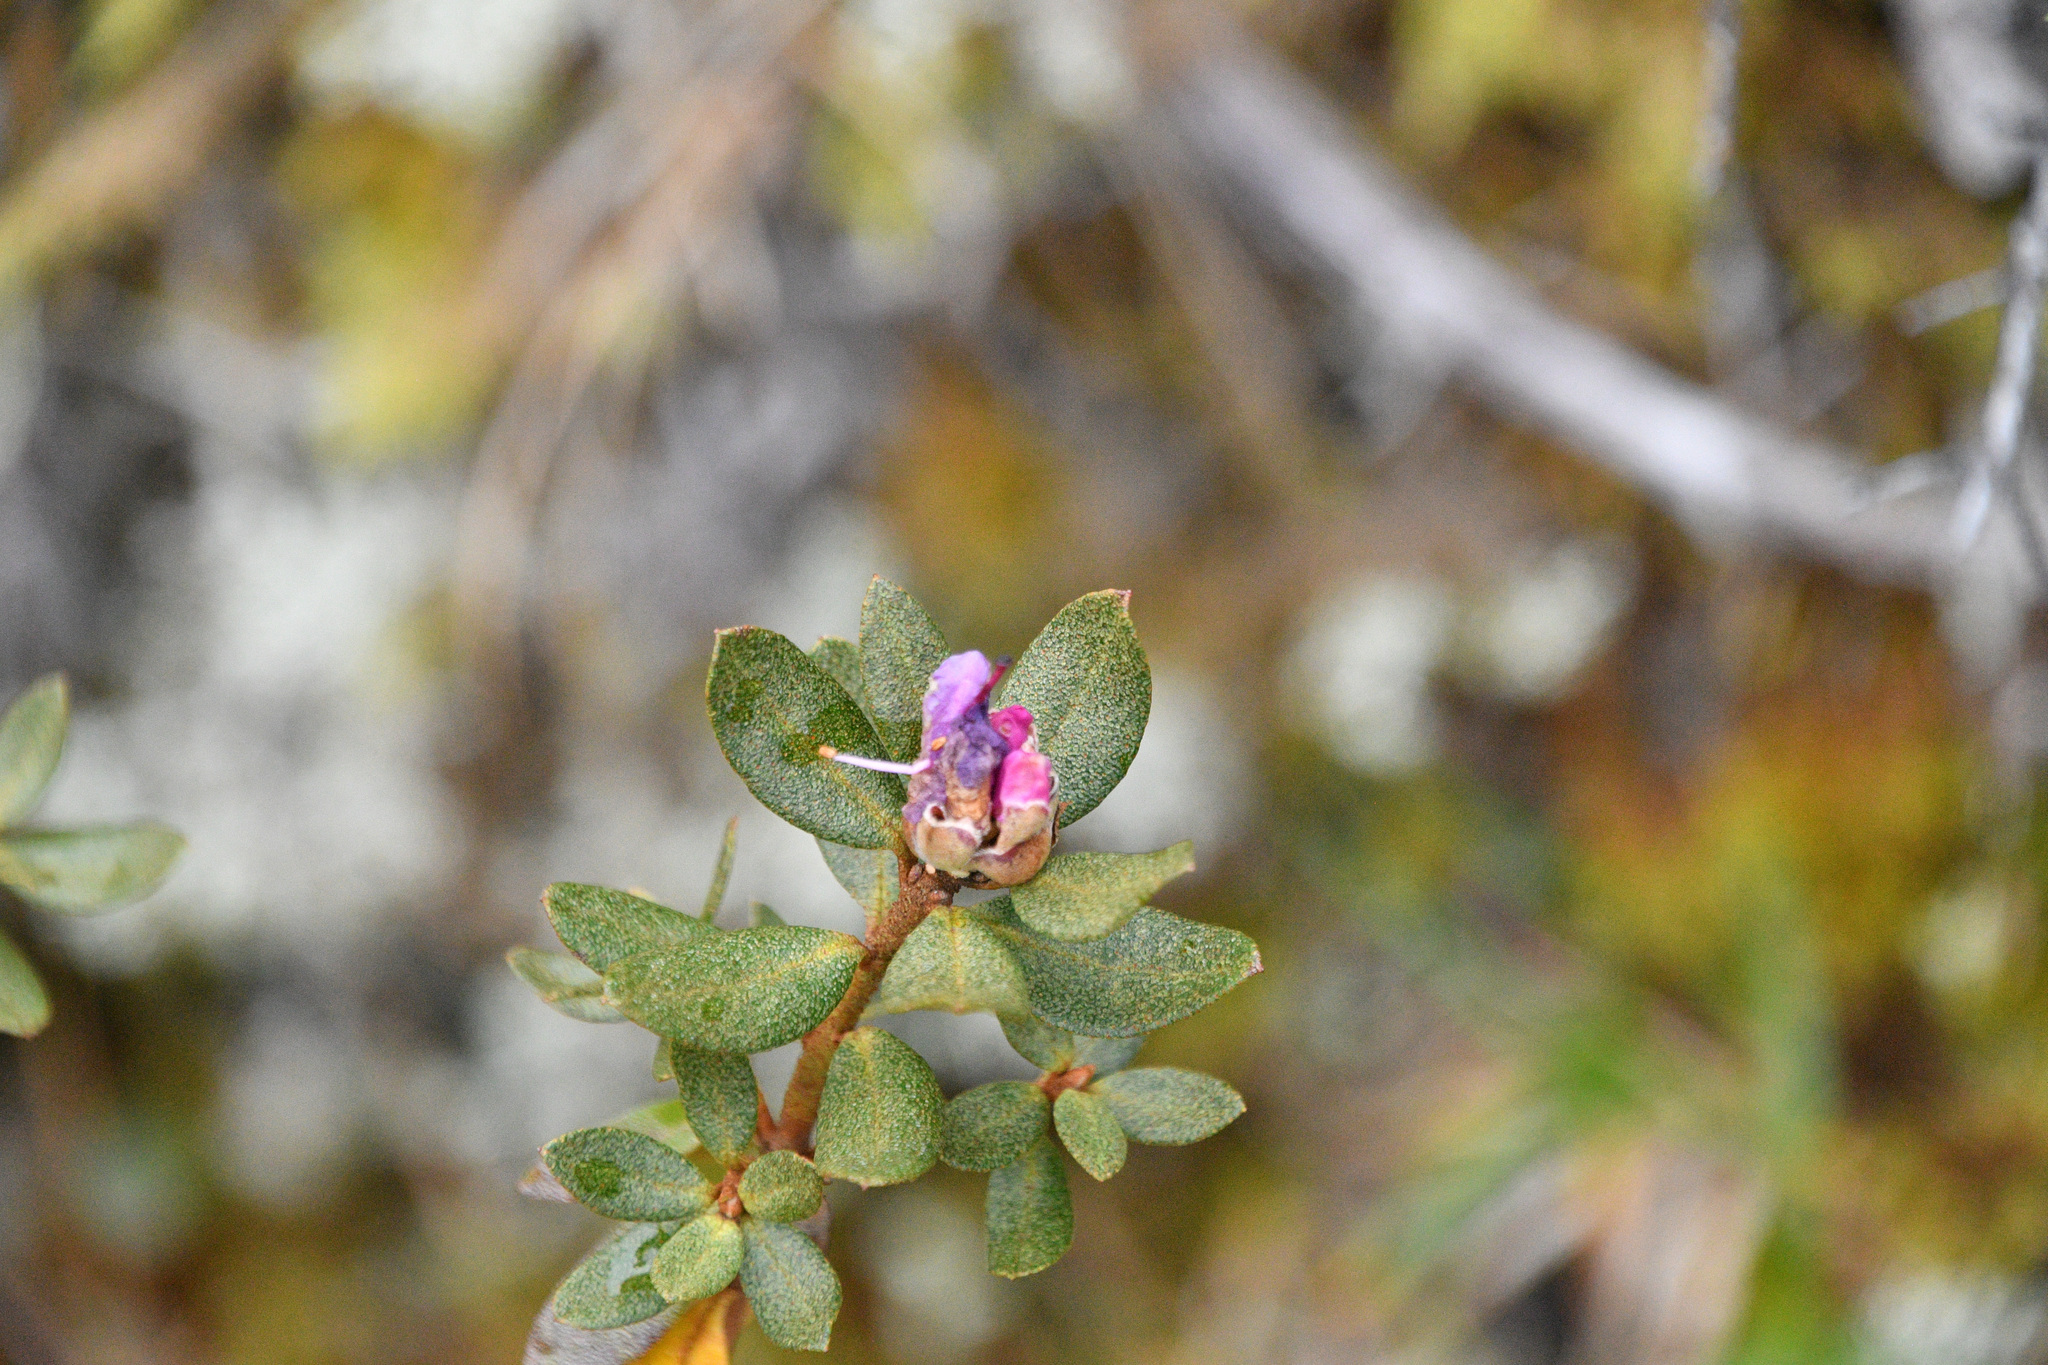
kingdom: Plantae
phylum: Tracheophyta
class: Magnoliopsida
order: Ericales
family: Ericaceae
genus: Rhododendron
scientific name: Rhododendron lapponicum
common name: Lapland rhododendron
